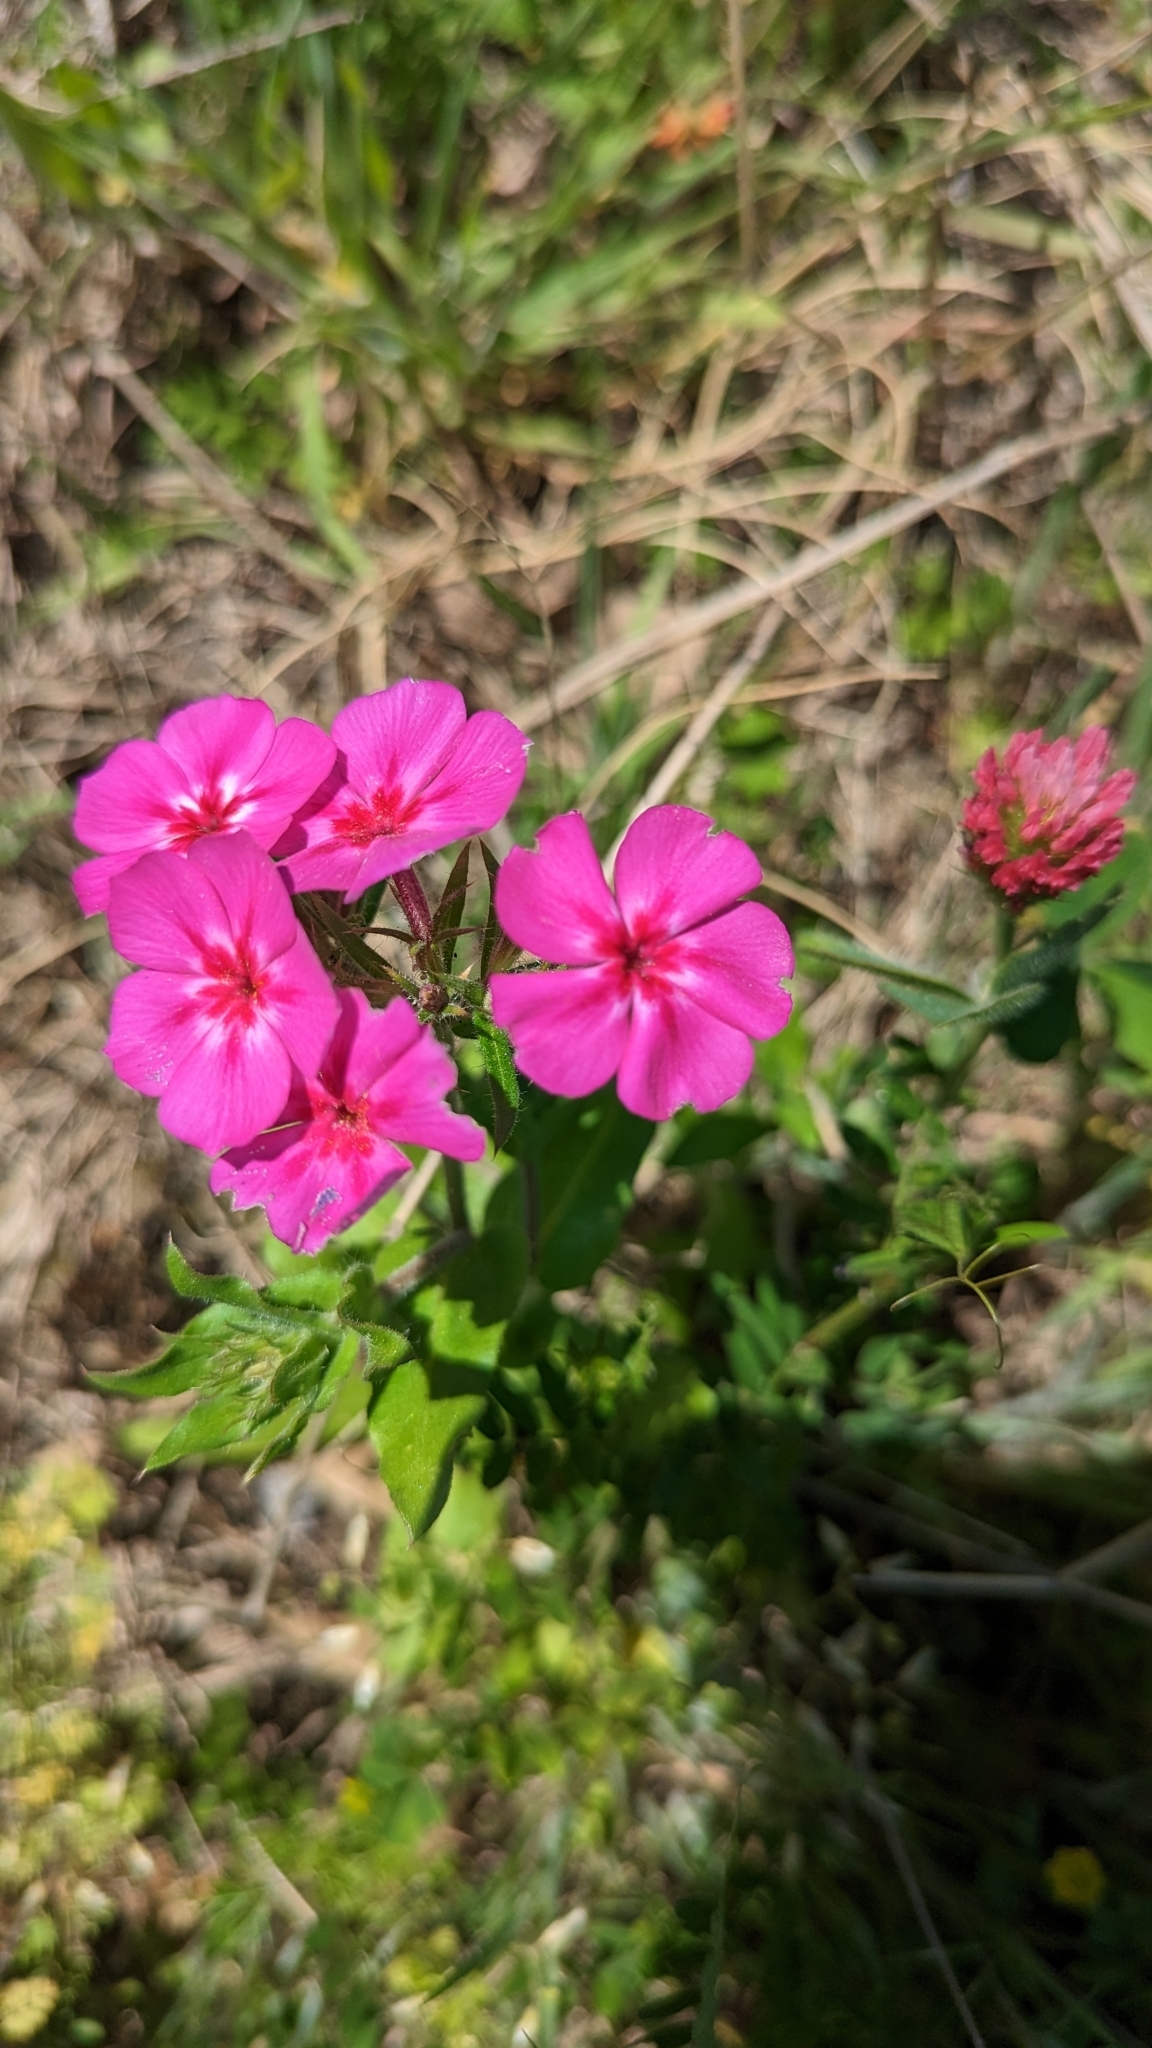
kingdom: Plantae
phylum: Tracheophyta
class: Magnoliopsida
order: Ericales
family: Polemoniaceae
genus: Phlox
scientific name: Phlox drummondii
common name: Drummond's phlox
